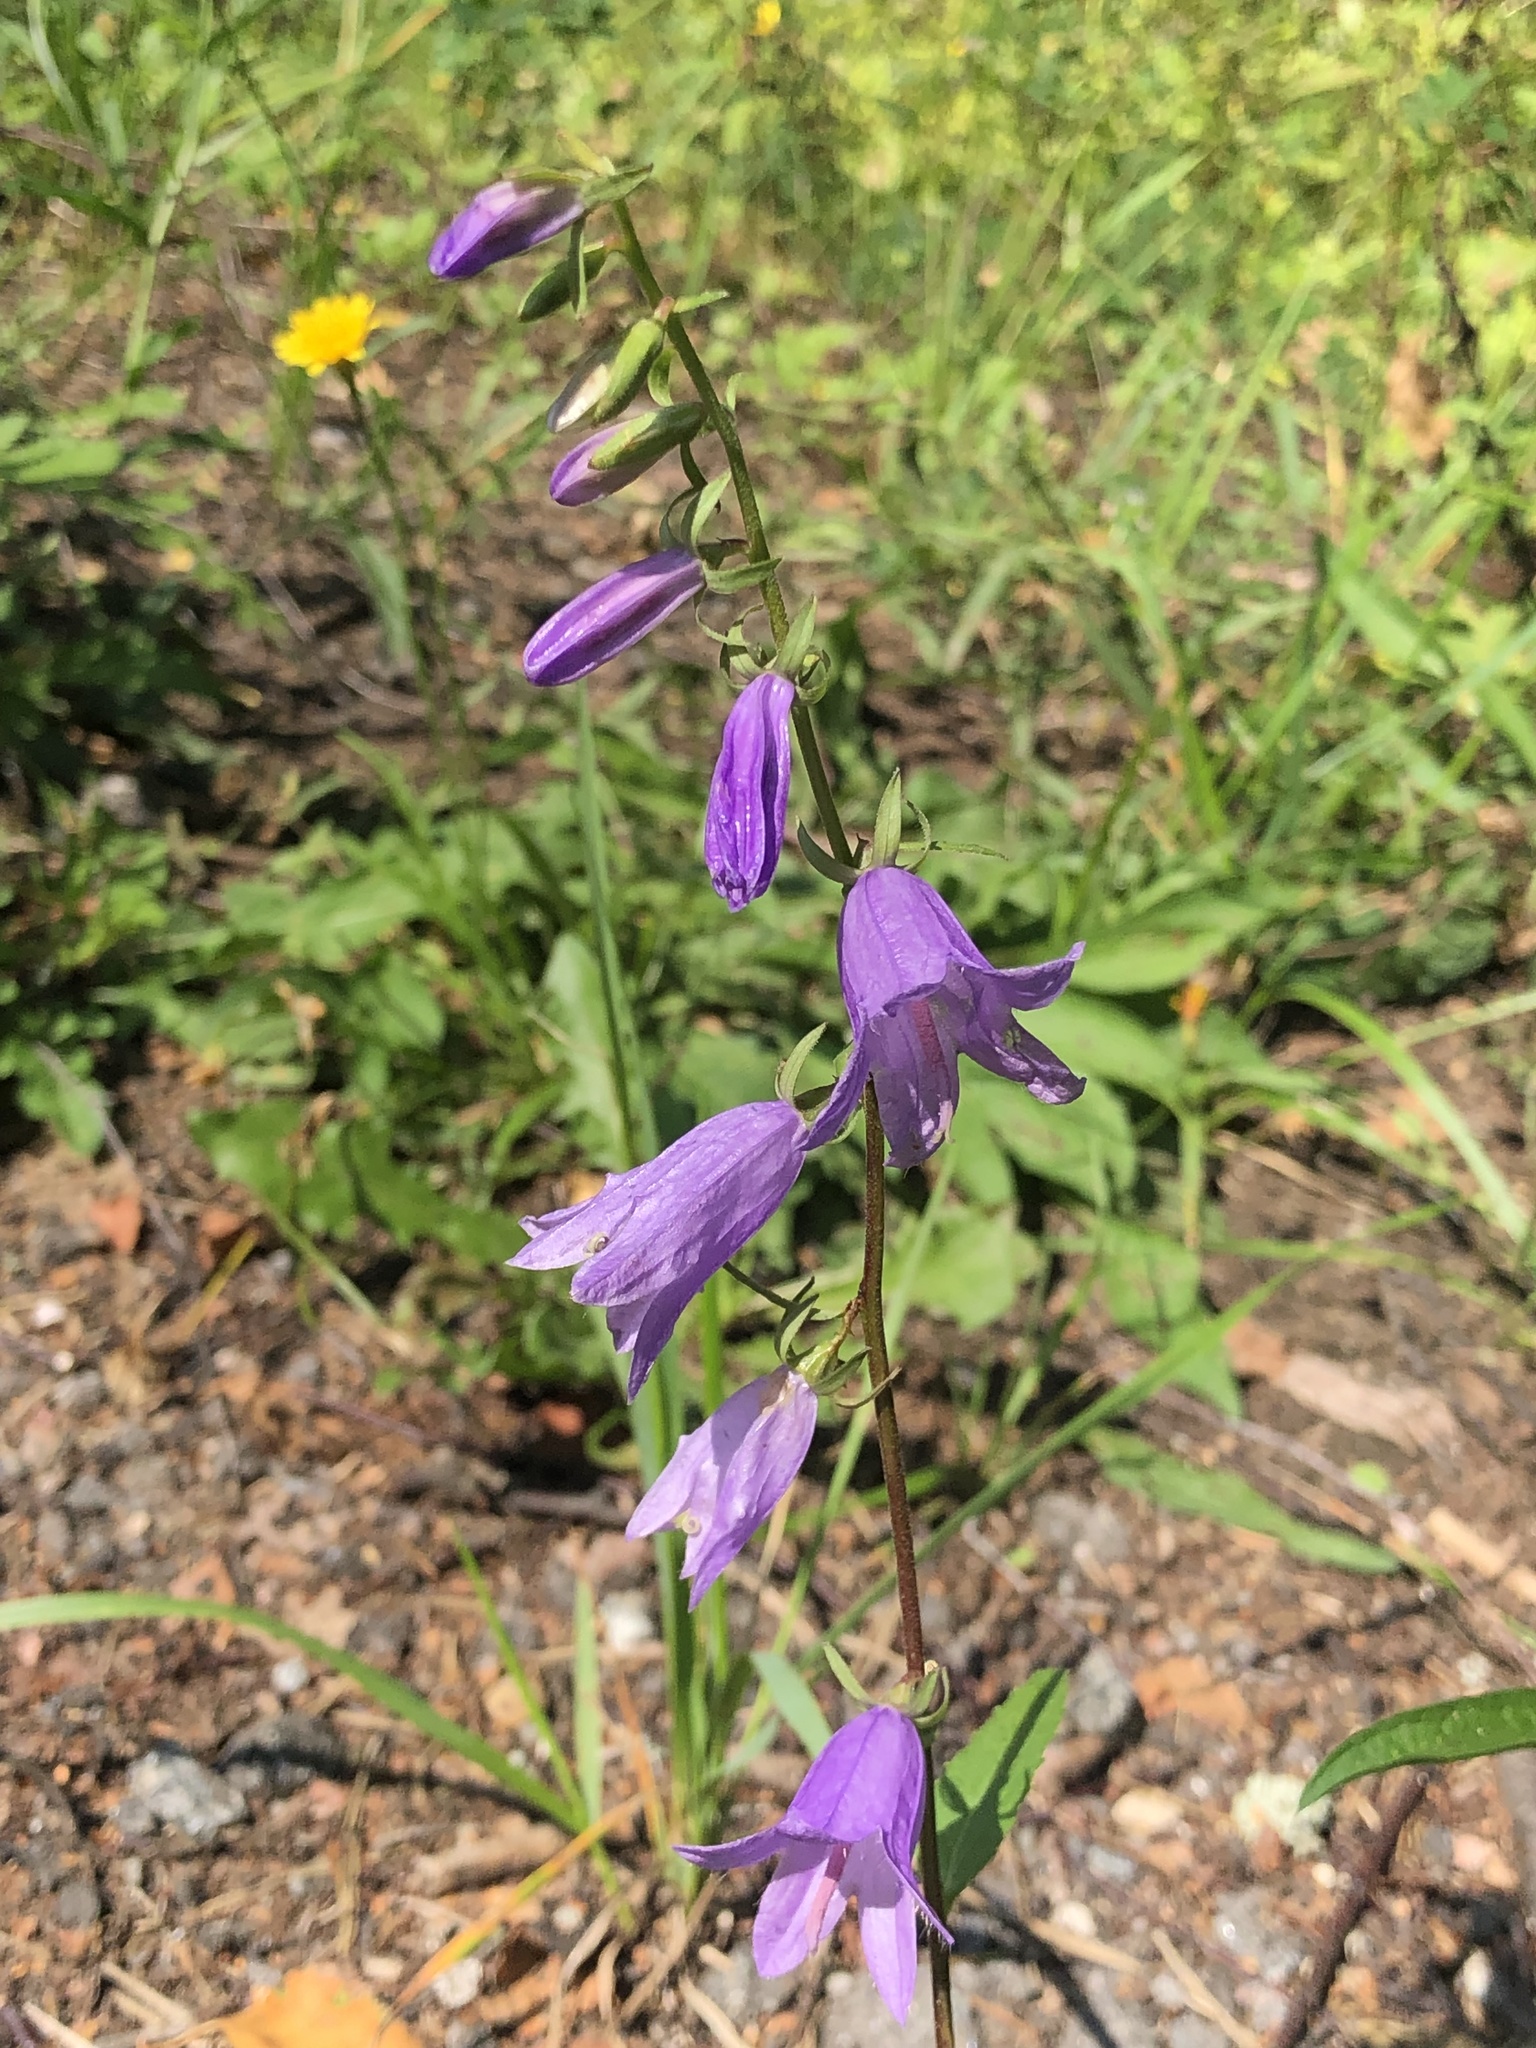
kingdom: Plantae
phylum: Tracheophyta
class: Magnoliopsida
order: Asterales
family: Campanulaceae
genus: Campanula
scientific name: Campanula rapunculoides
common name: Creeping bellflower
